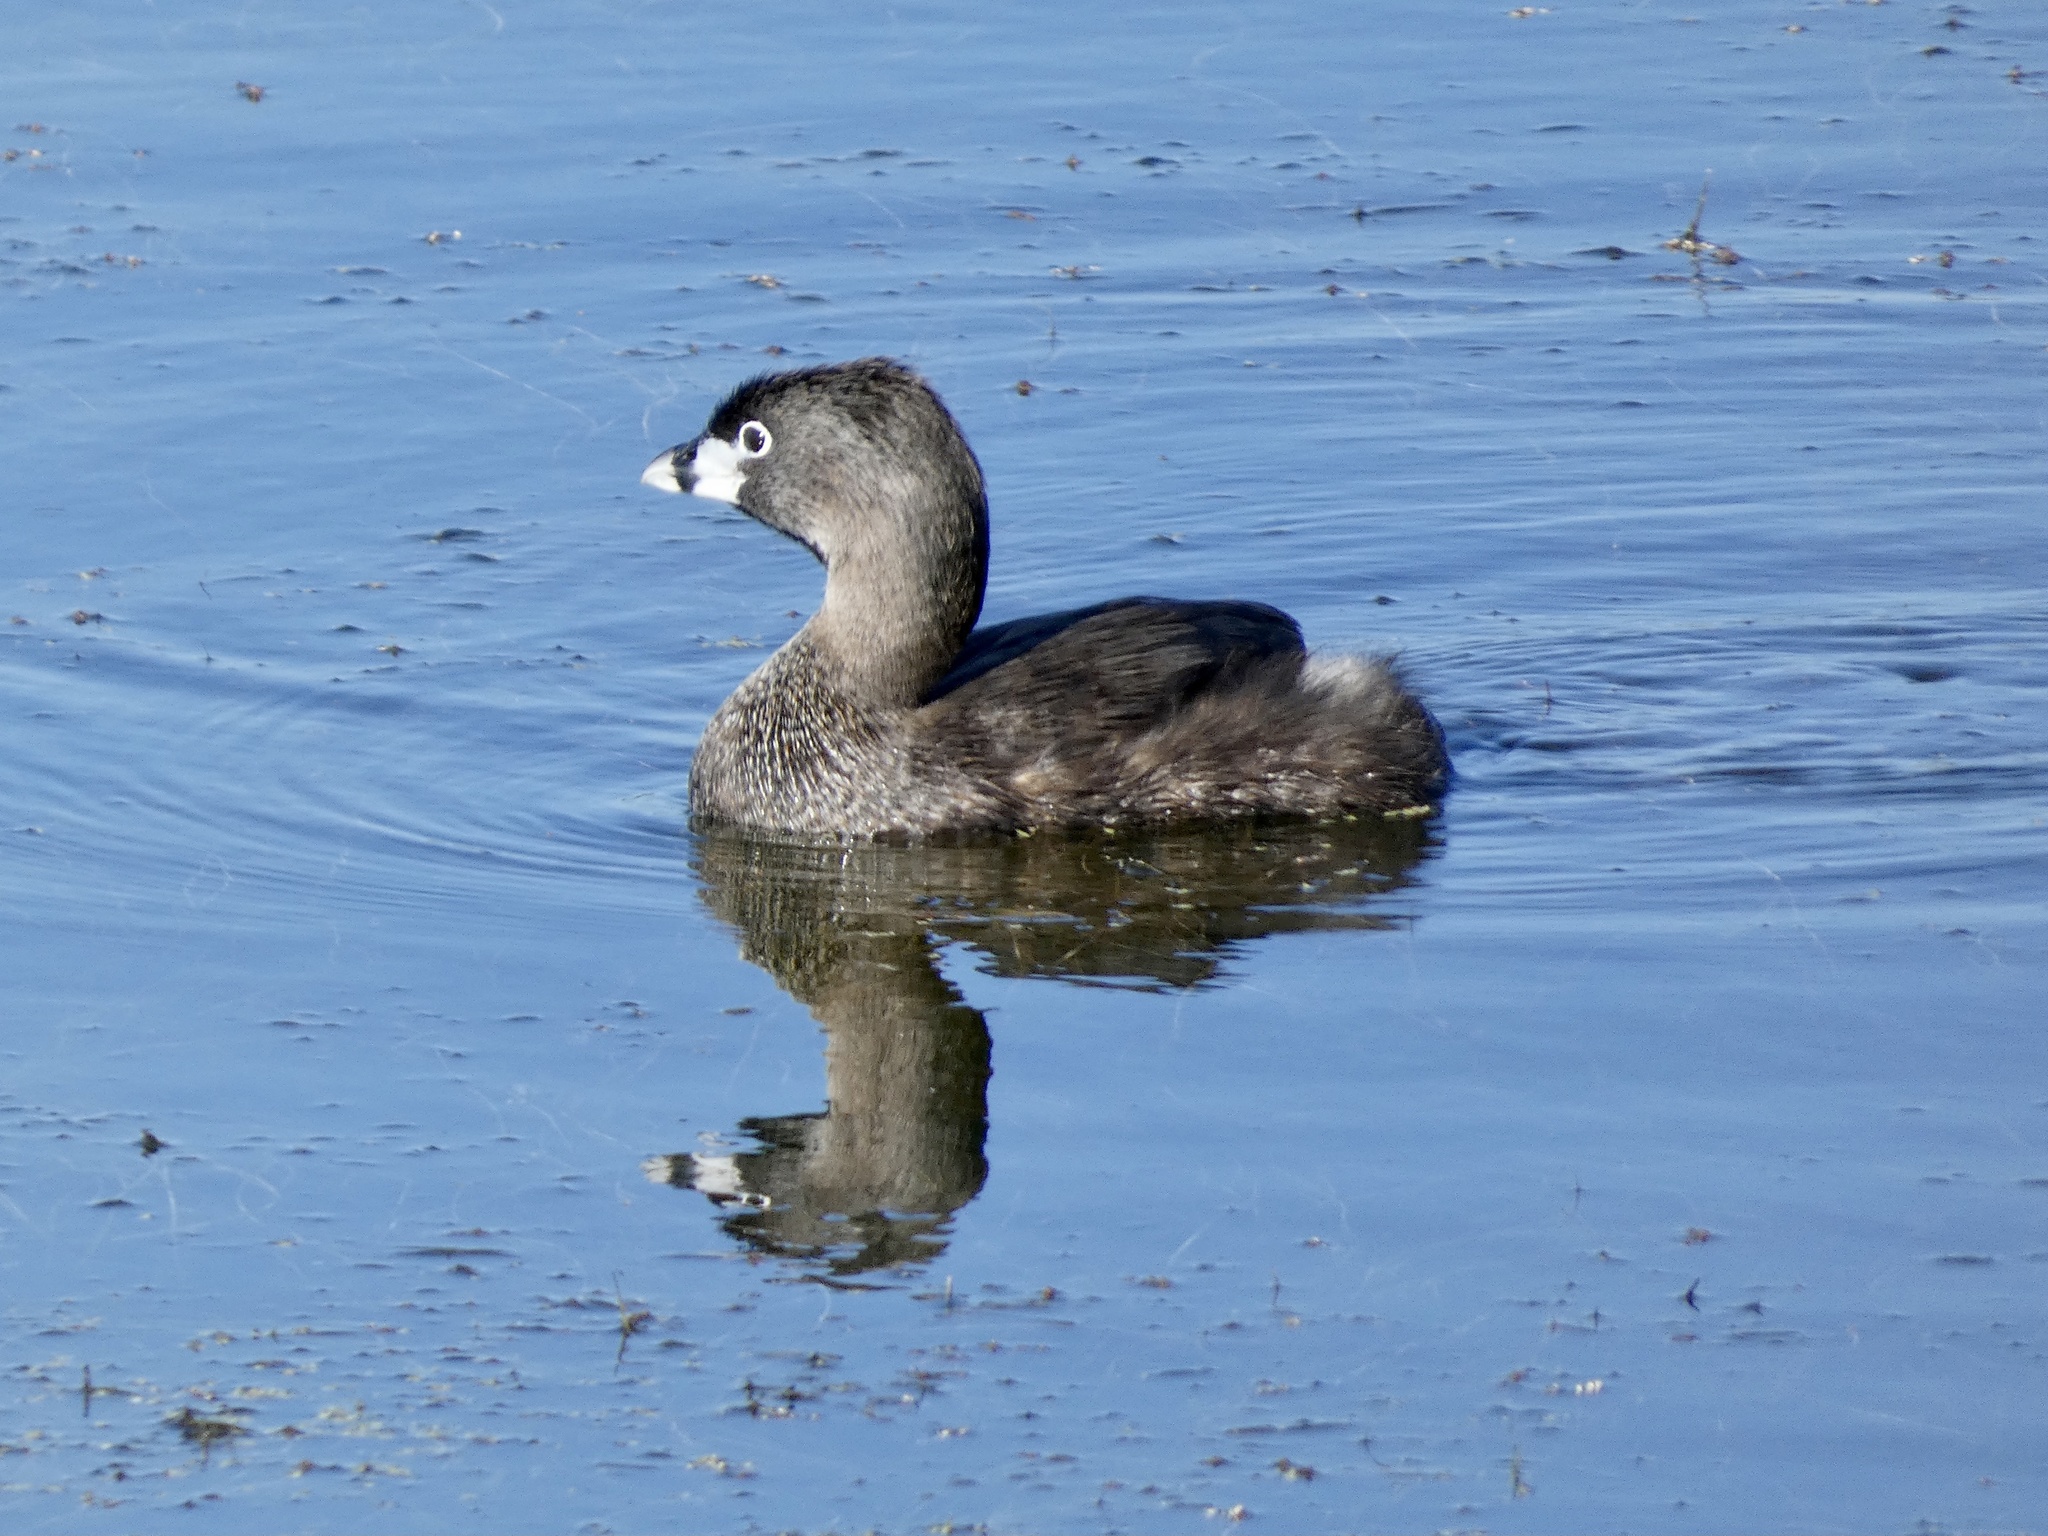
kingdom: Animalia
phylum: Chordata
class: Aves
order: Podicipediformes
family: Podicipedidae
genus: Podilymbus
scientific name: Podilymbus podiceps
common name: Pied-billed grebe
